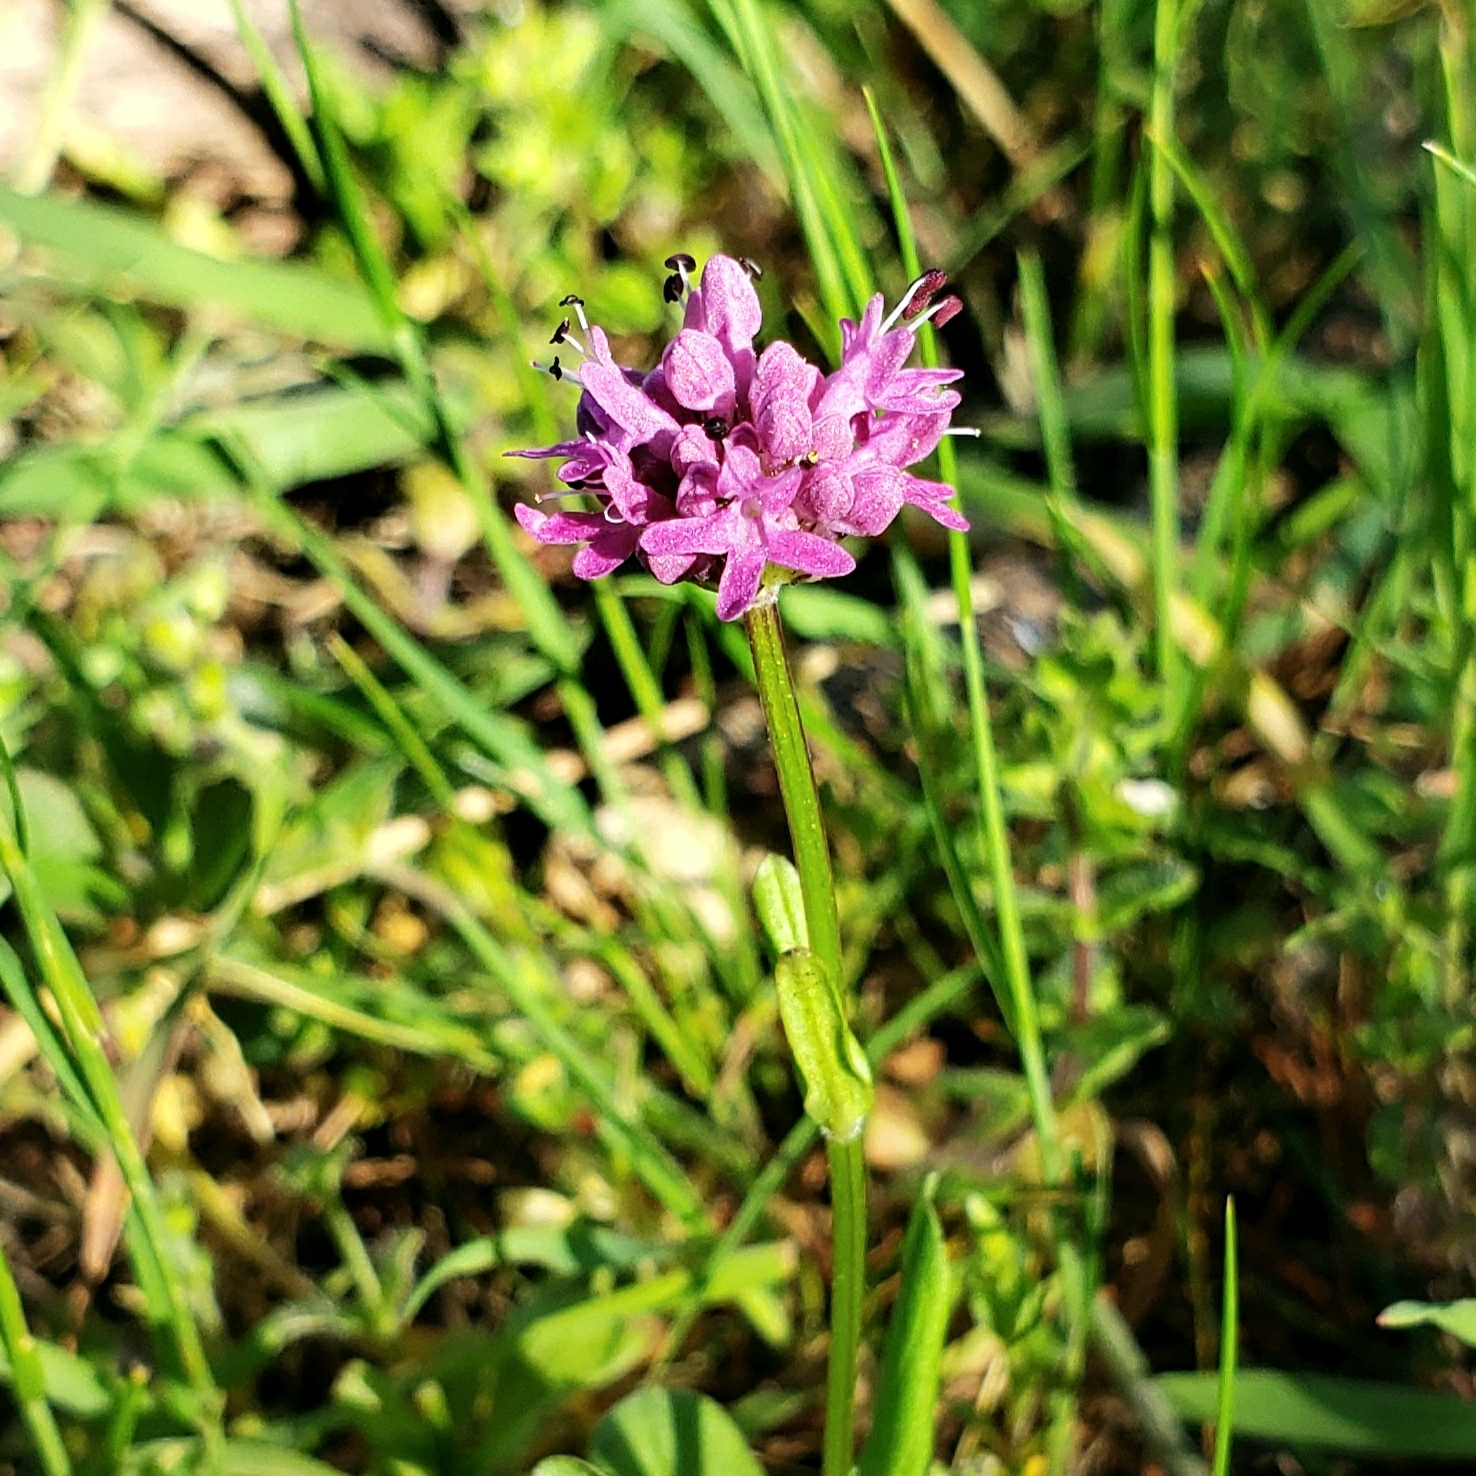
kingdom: Plantae
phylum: Tracheophyta
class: Magnoliopsida
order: Dipsacales
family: Caprifoliaceae
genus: Plectritis
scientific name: Plectritis congesta
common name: Pink plectritis
